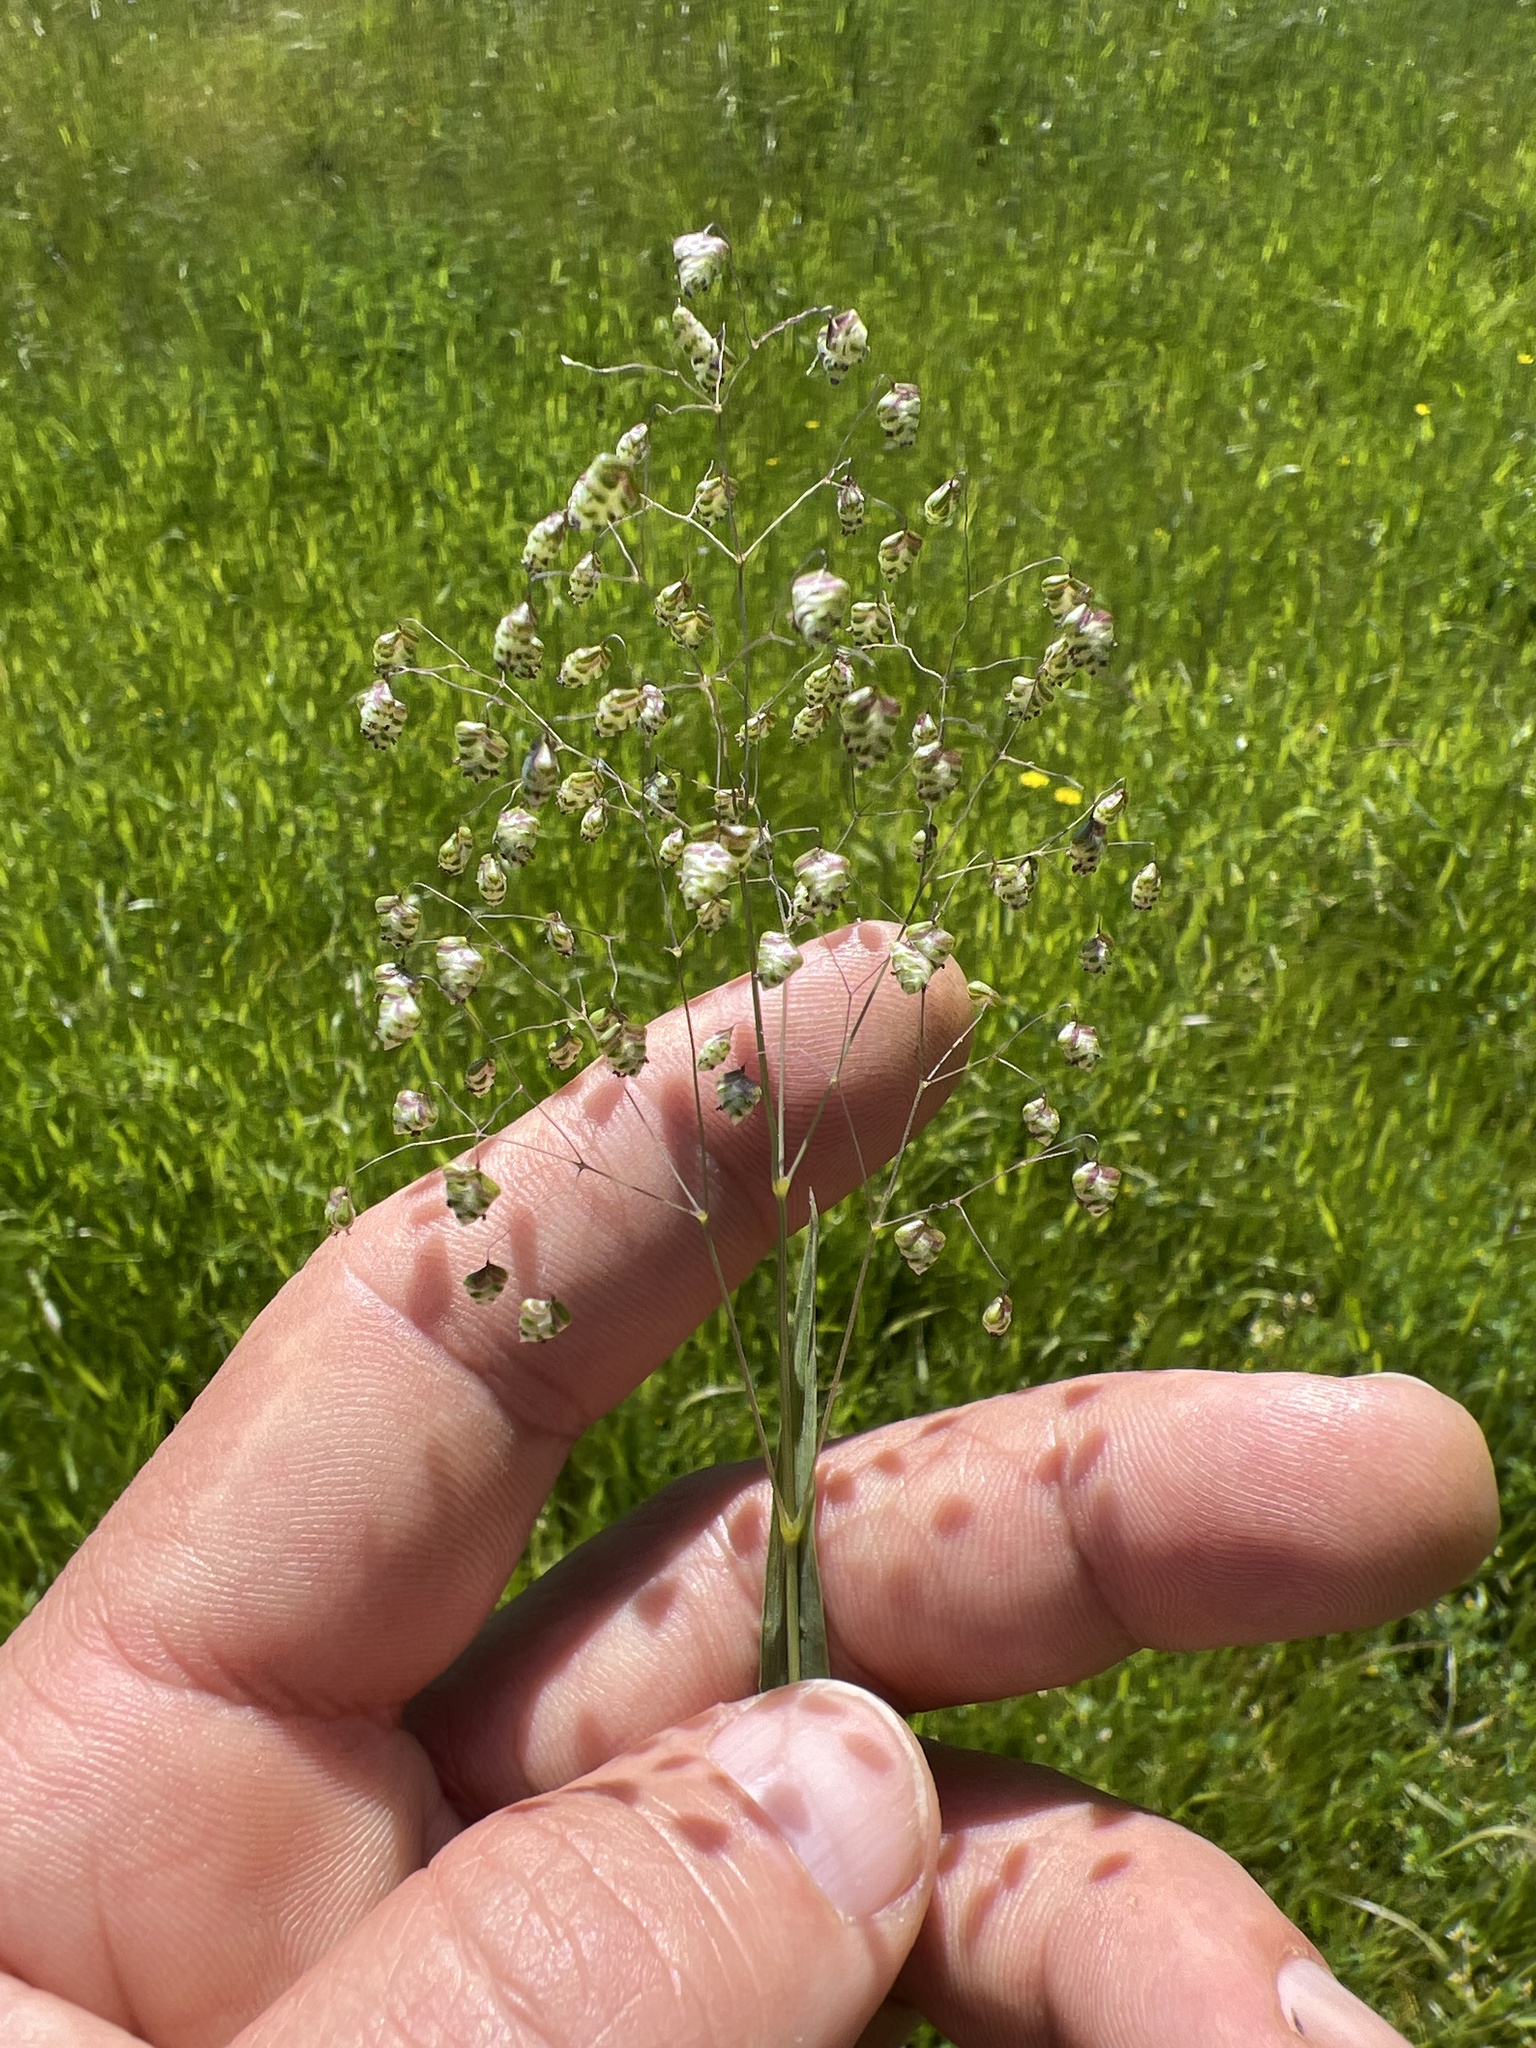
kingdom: Plantae
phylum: Tracheophyta
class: Liliopsida
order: Poales
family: Poaceae
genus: Briza
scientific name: Briza minor
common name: Lesser quaking-grass
